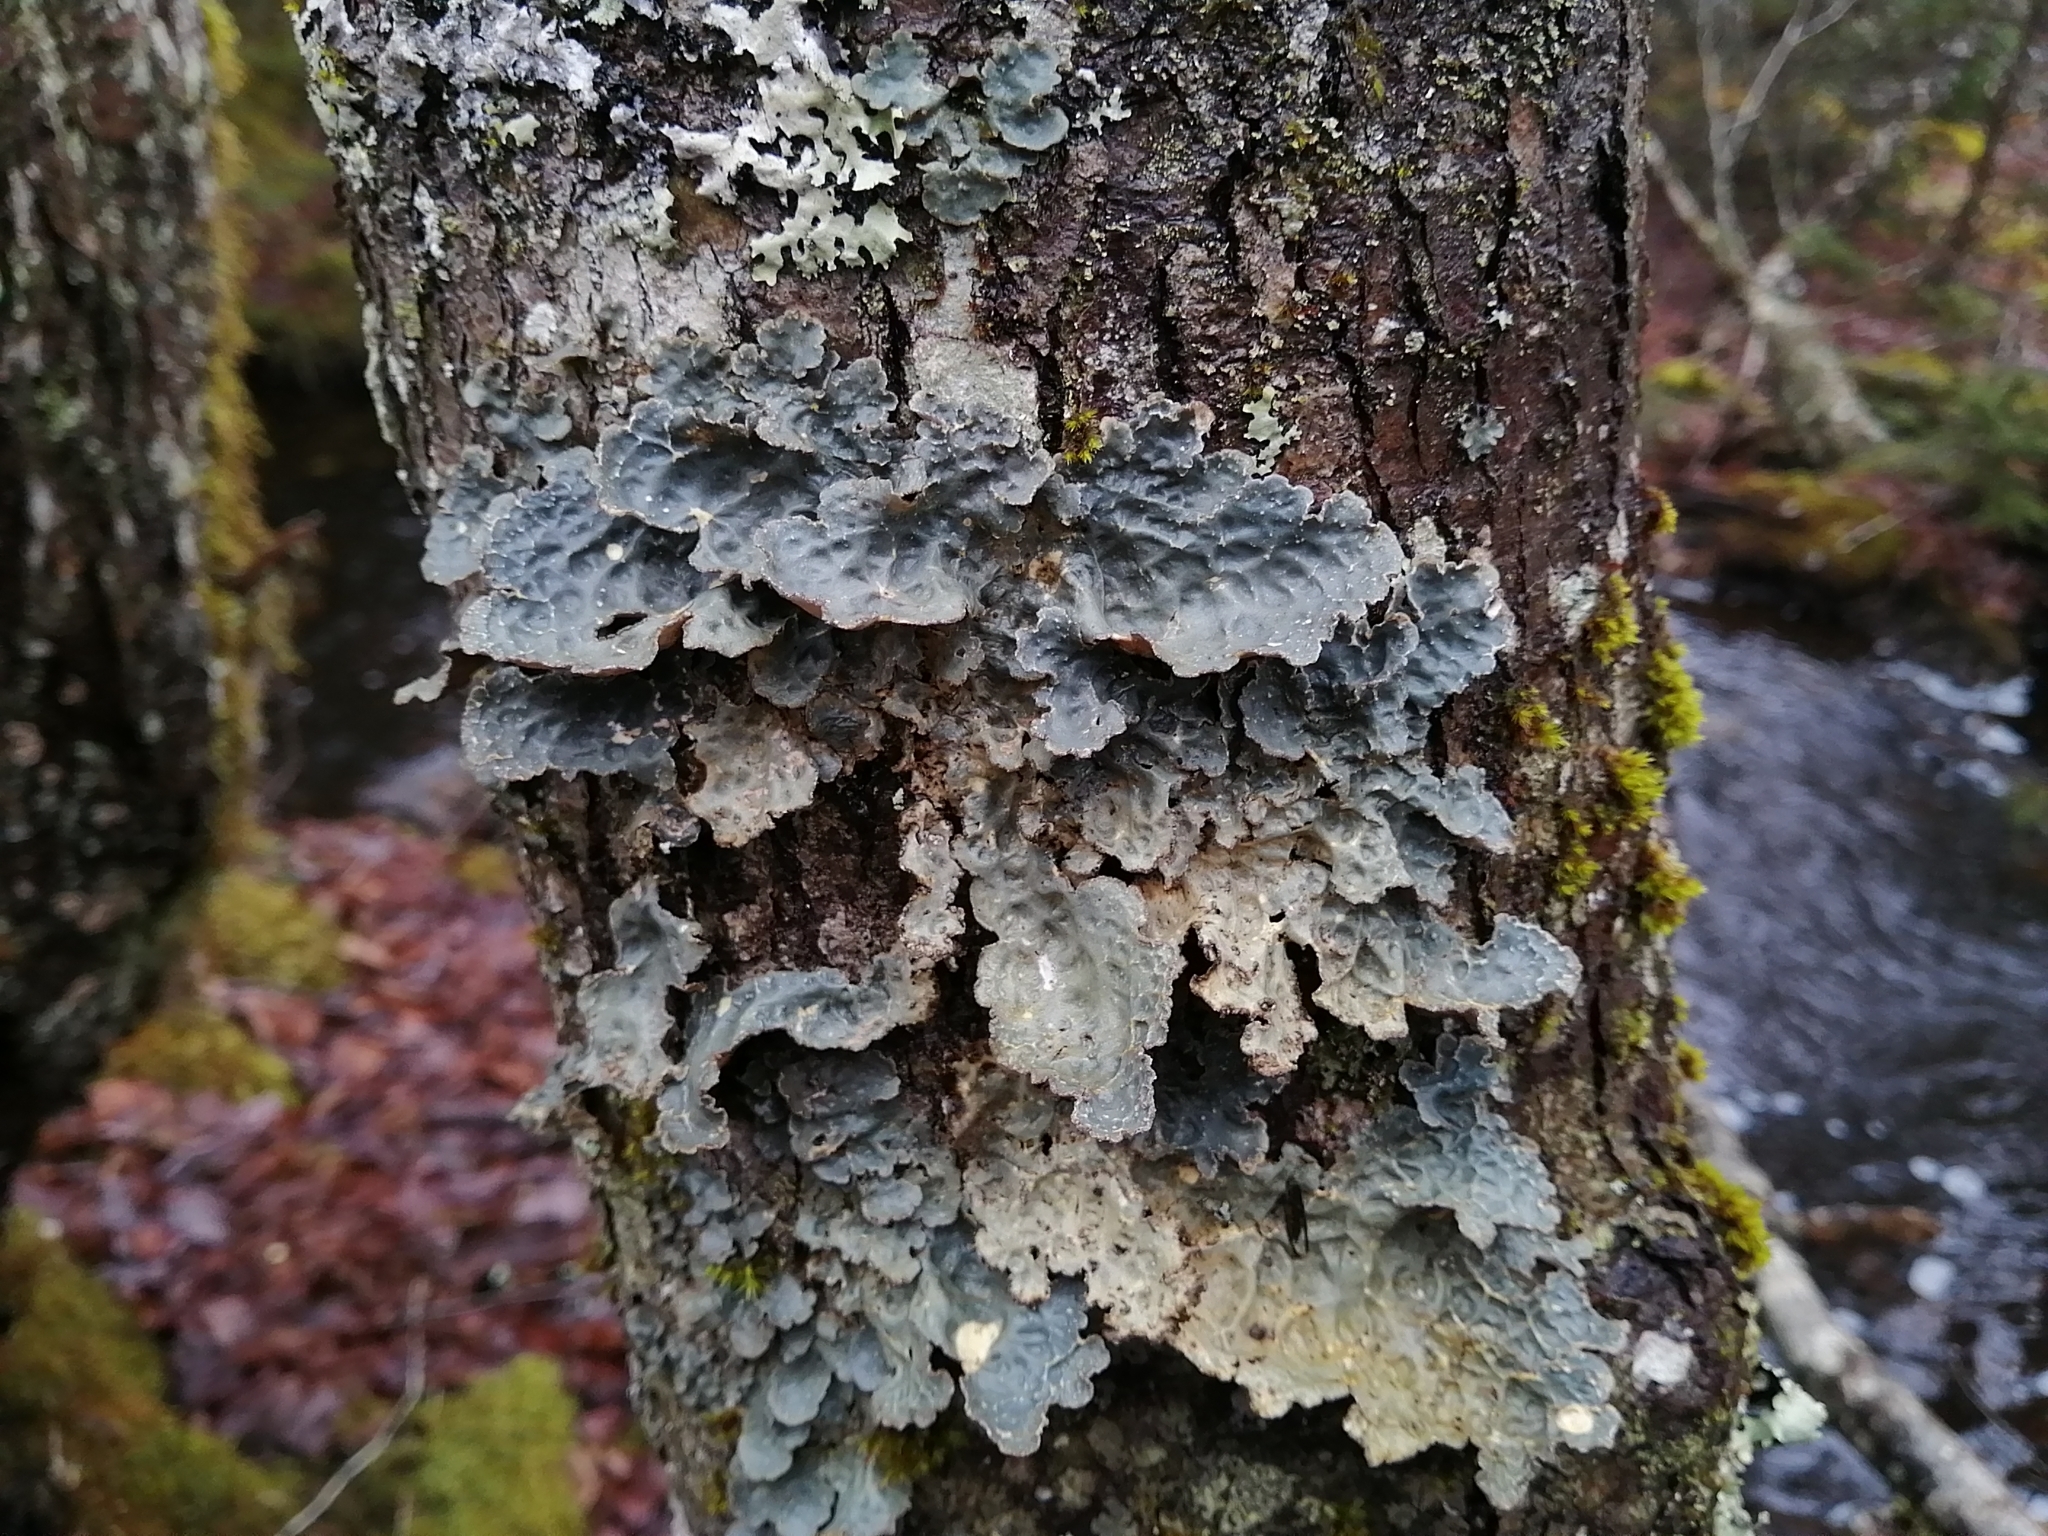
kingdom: Fungi
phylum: Ascomycota
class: Lecanoromycetes
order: Peltigerales
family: Lobariaceae
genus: Lobarina
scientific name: Lobarina scrobiculata
